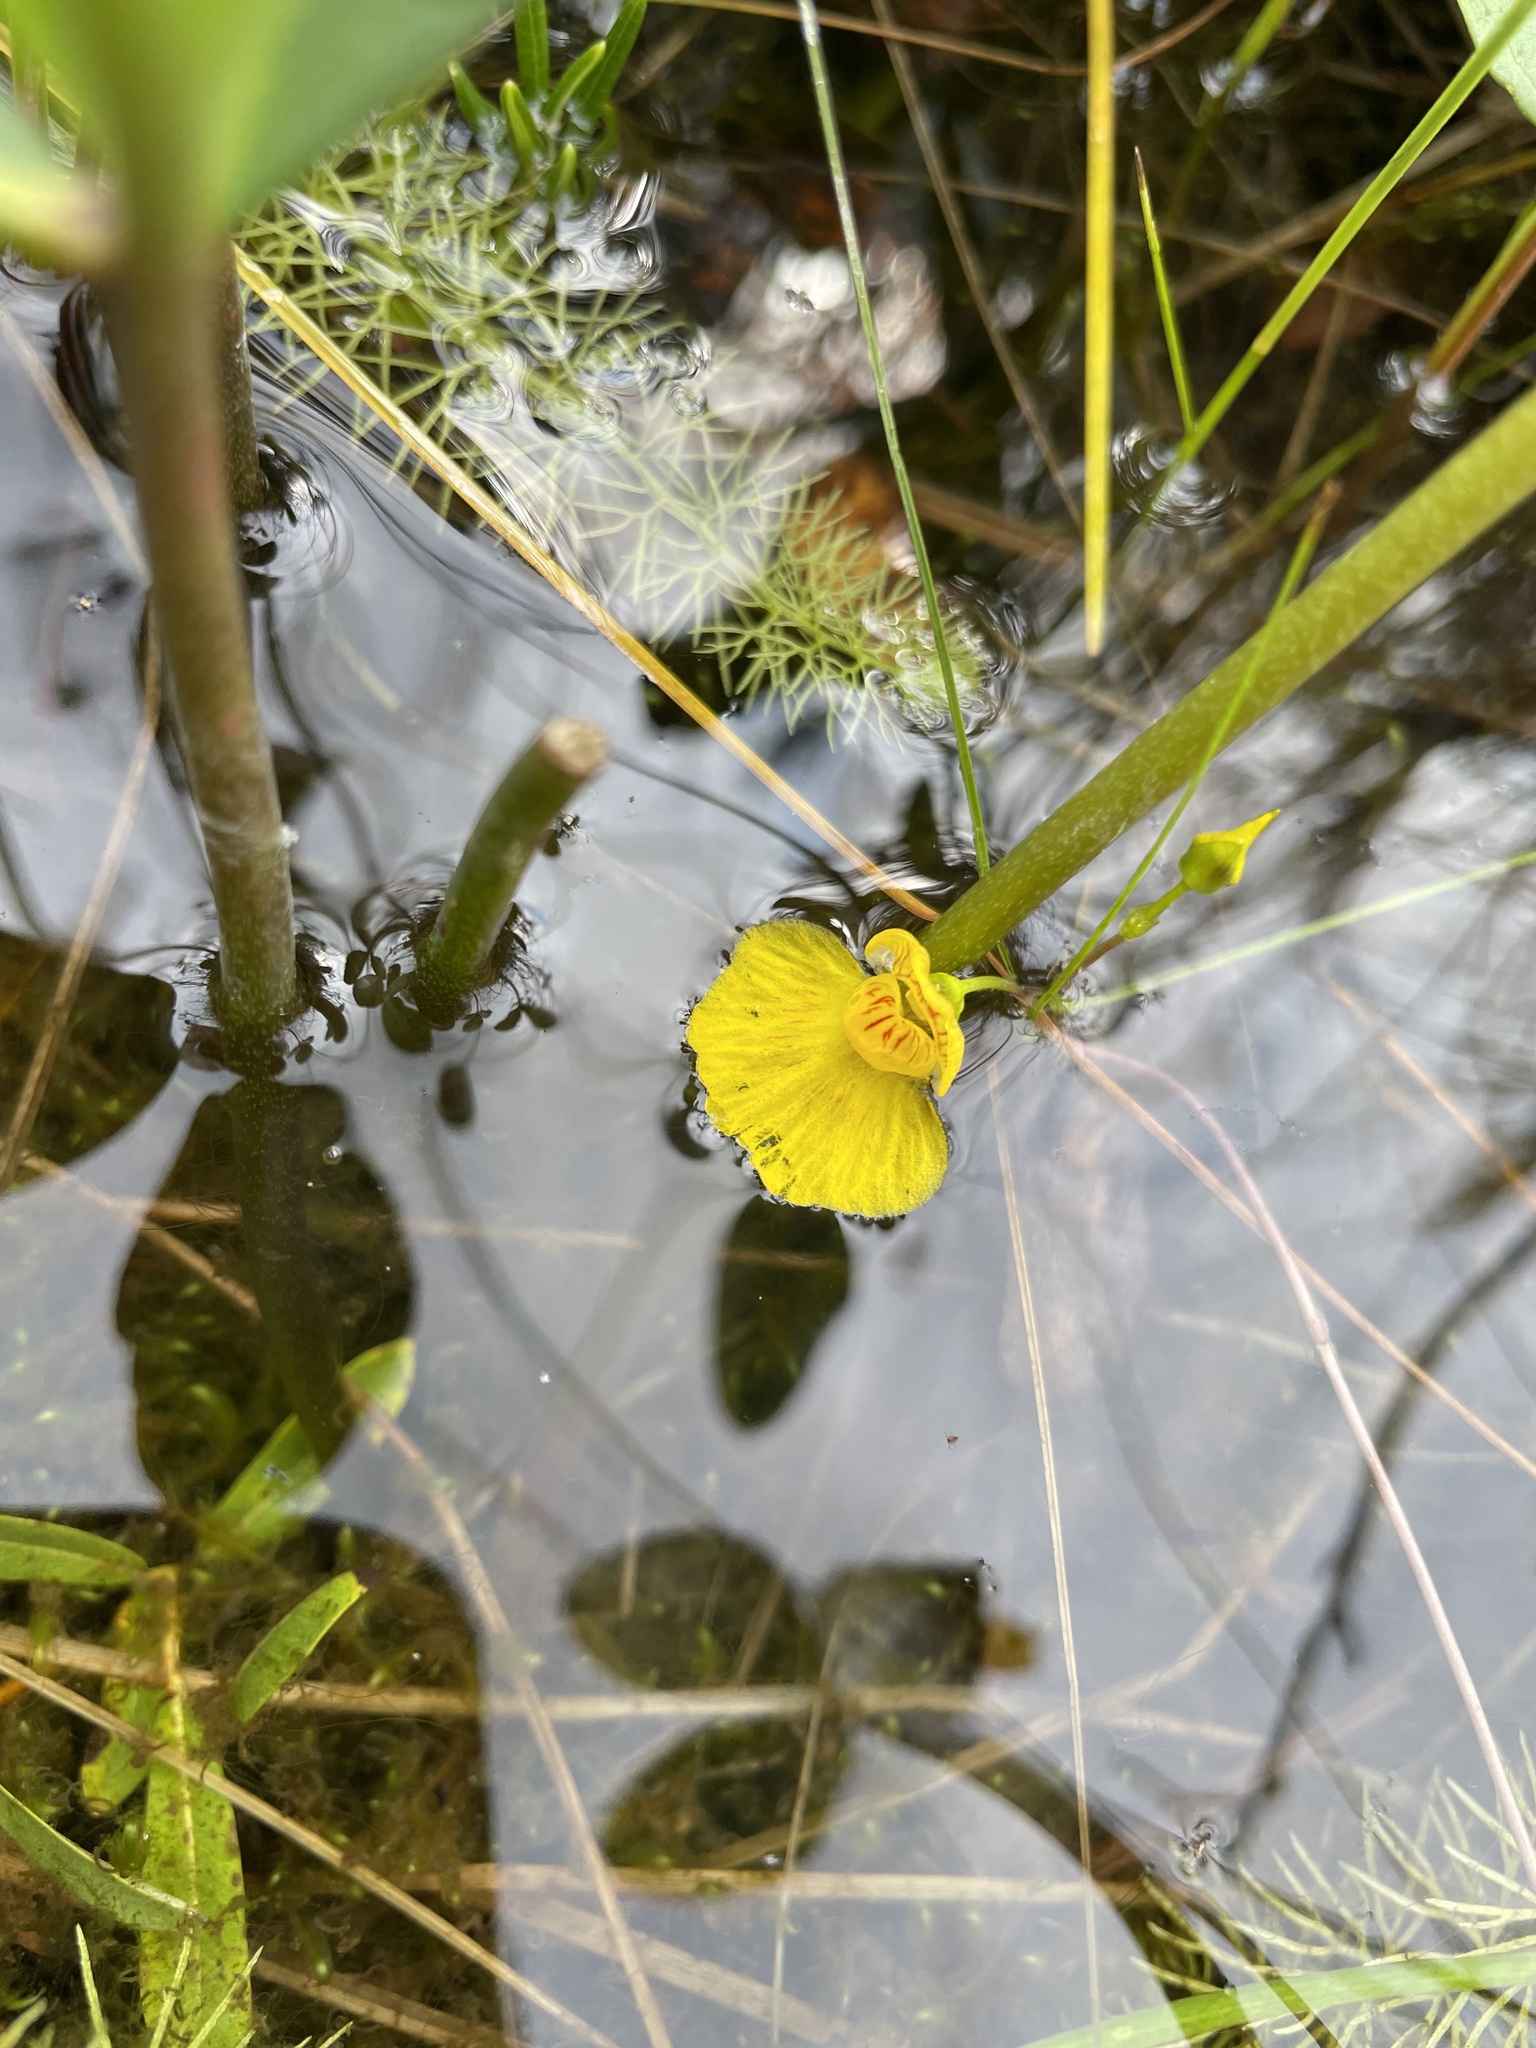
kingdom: Plantae
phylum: Tracheophyta
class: Magnoliopsida
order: Lamiales
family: Lentibulariaceae
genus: Utricularia
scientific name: Utricularia intermedia
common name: Intermediate bladderwort
